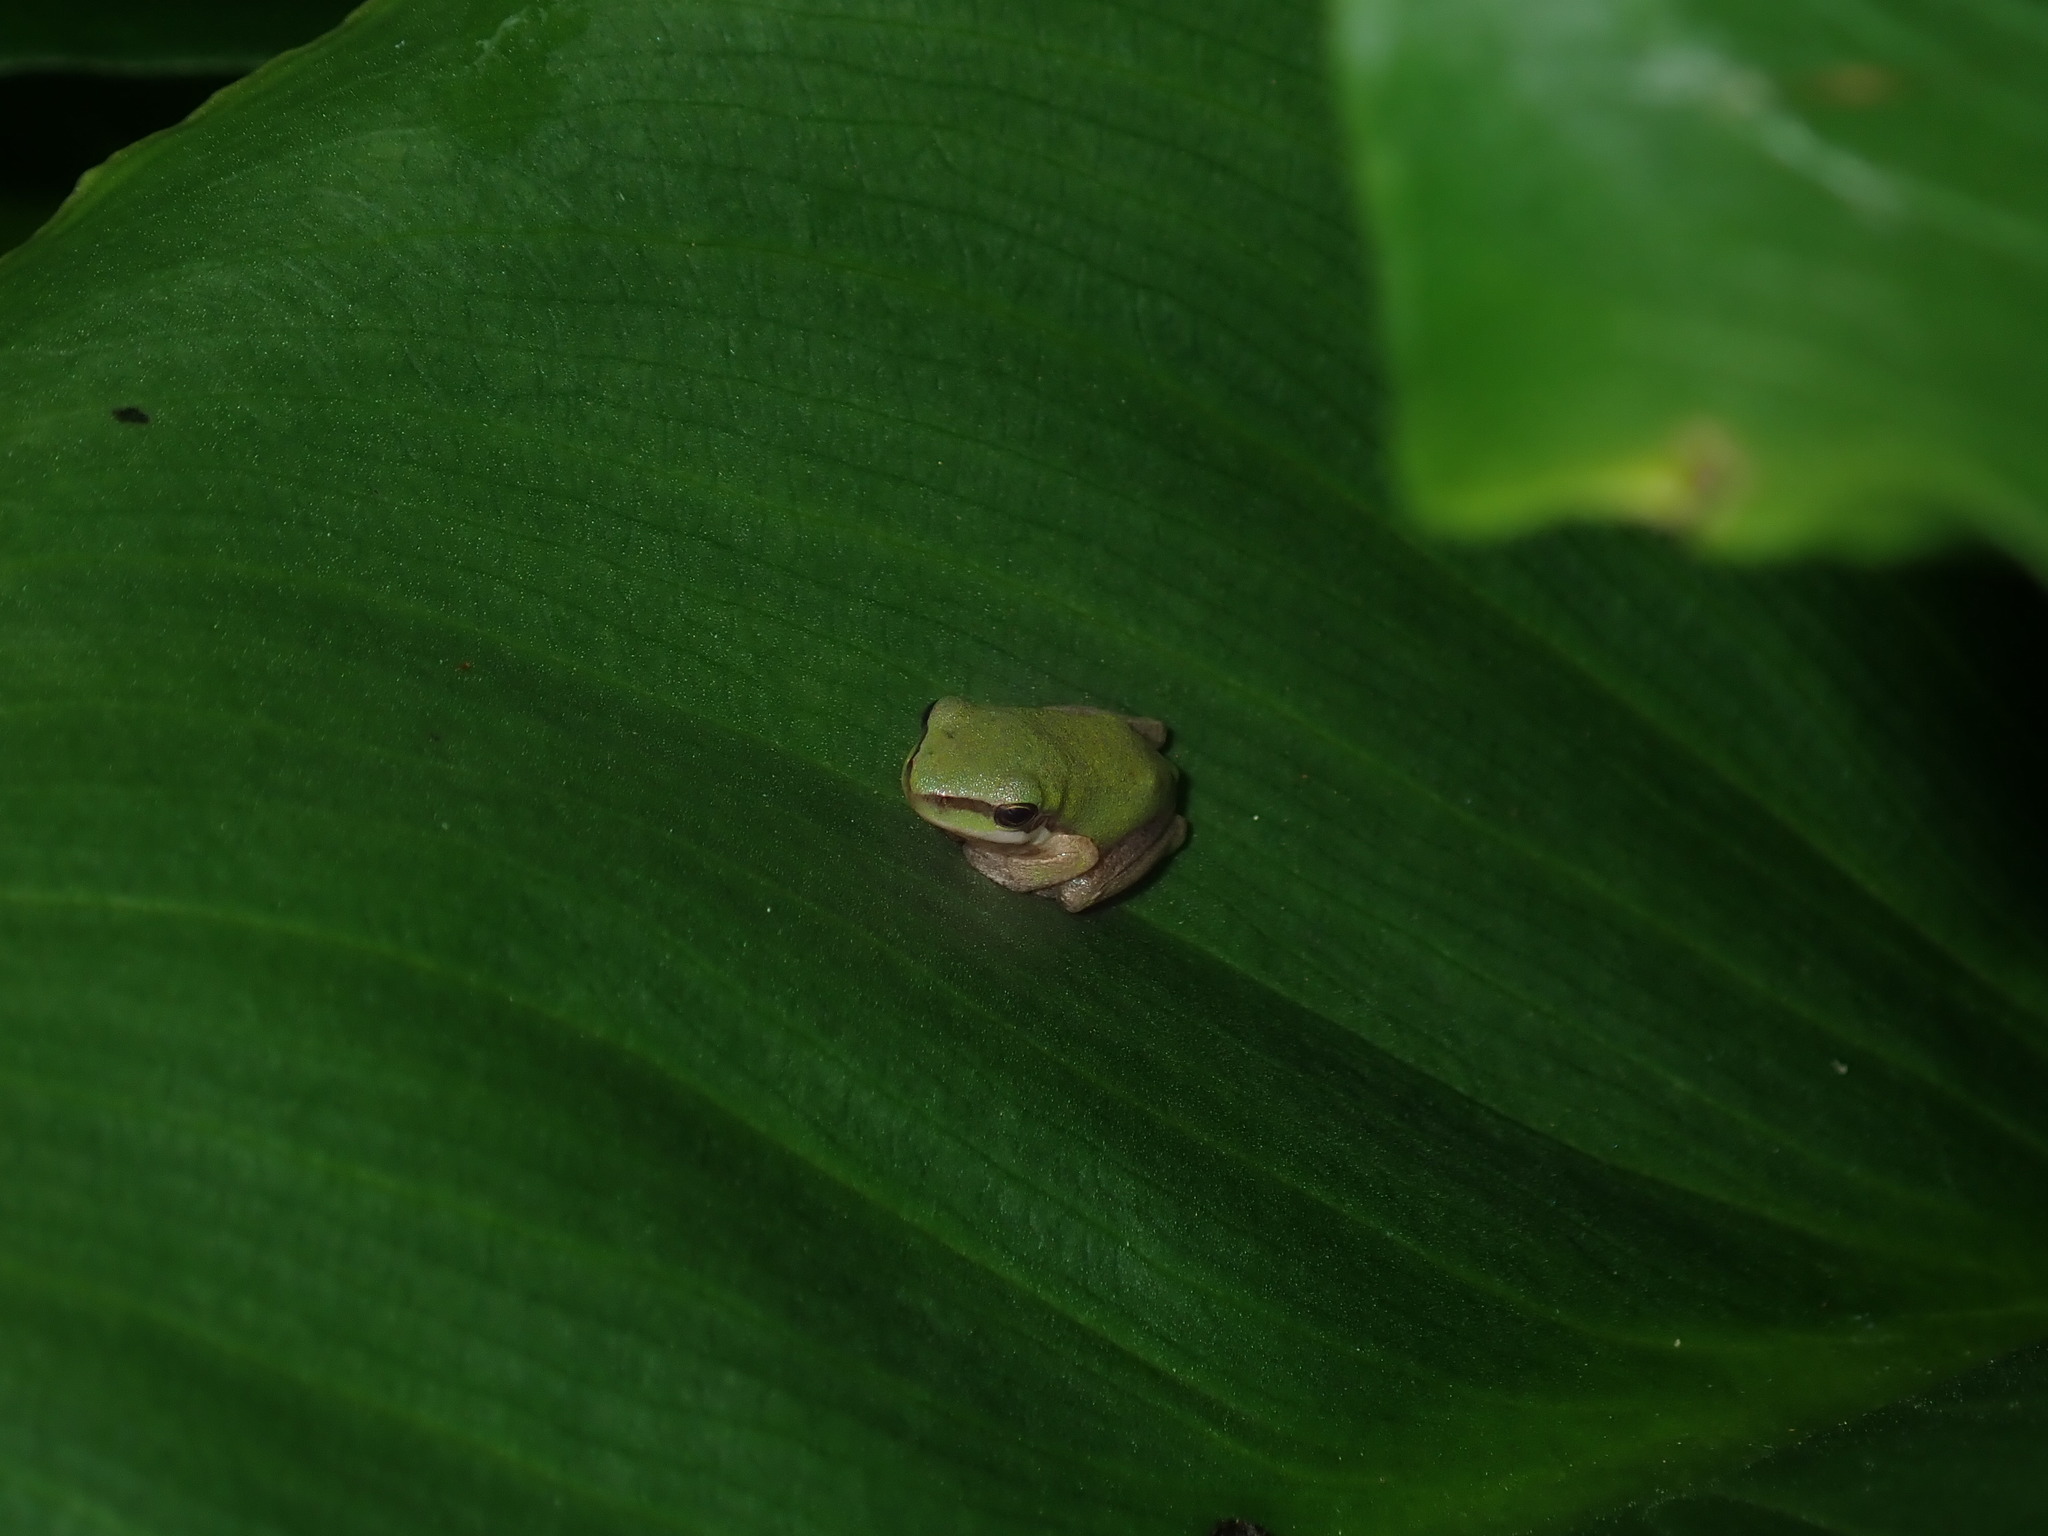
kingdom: Animalia
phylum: Chordata
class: Amphibia
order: Anura
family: Pelodryadidae
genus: Litoria
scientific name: Litoria fallax
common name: Eastern dwarf treefrog
